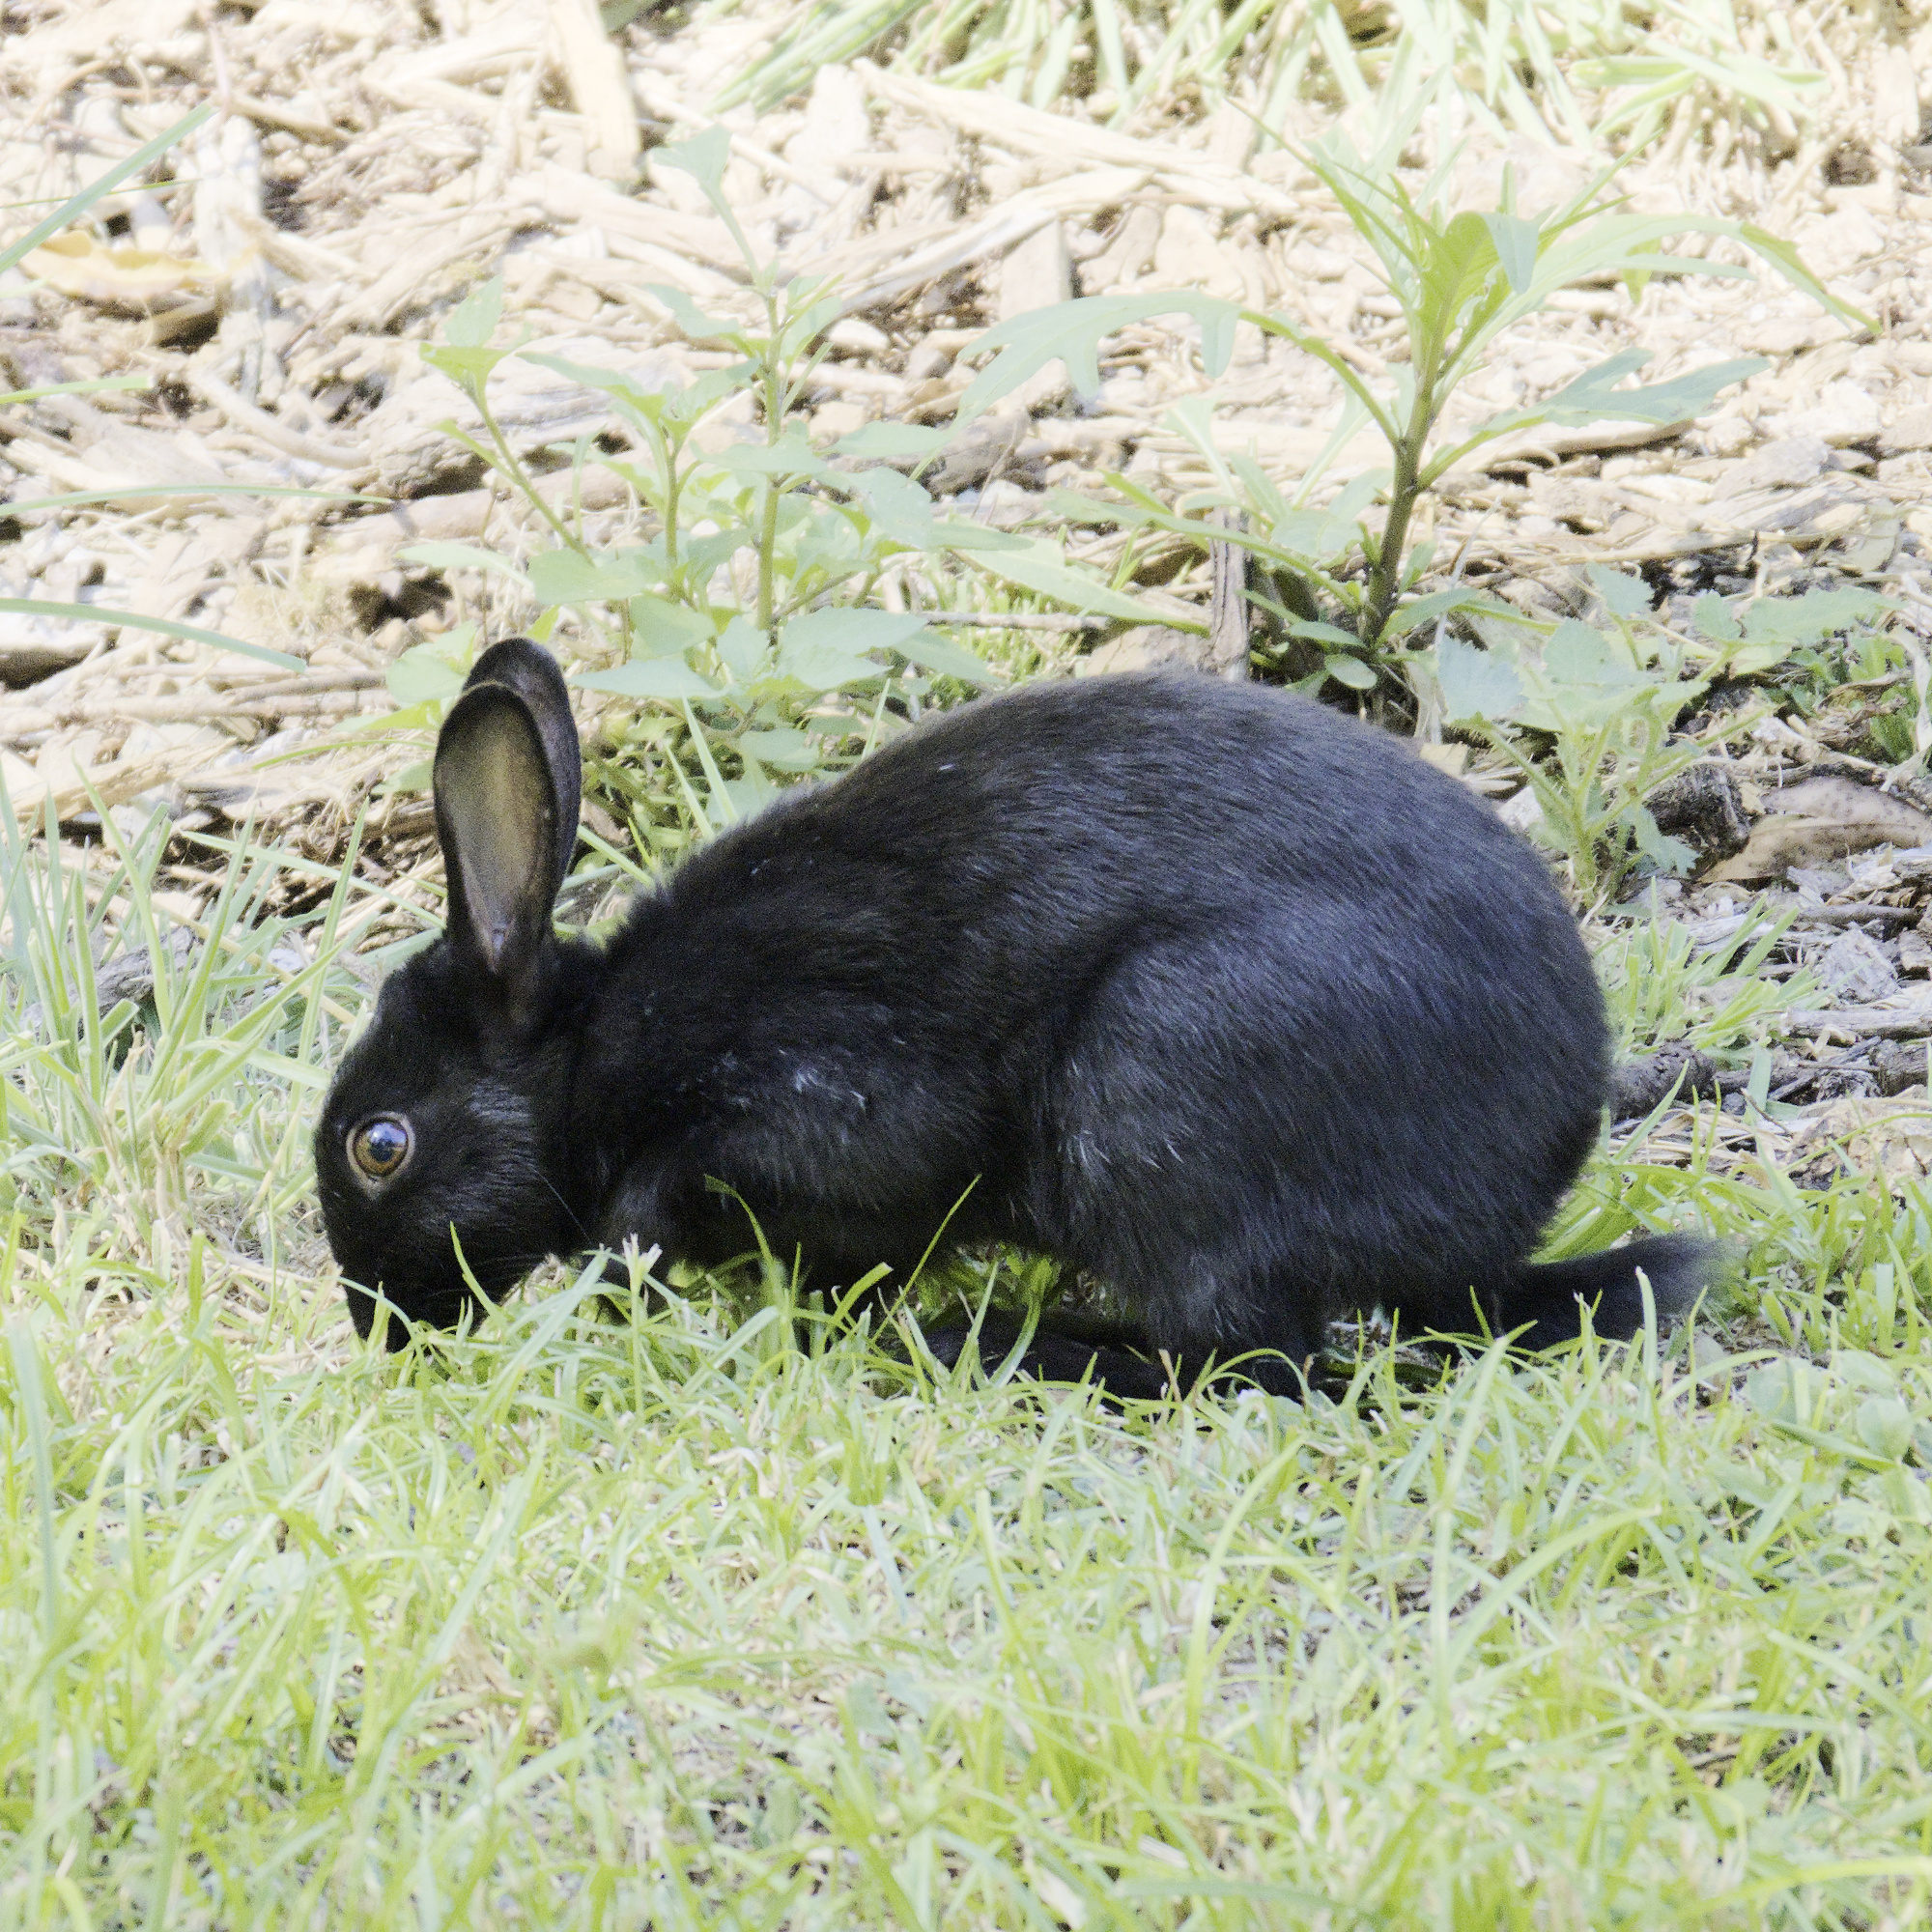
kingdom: Animalia
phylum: Chordata
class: Mammalia
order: Lagomorpha
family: Leporidae
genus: Oryctolagus
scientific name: Oryctolagus cuniculus
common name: European rabbit
